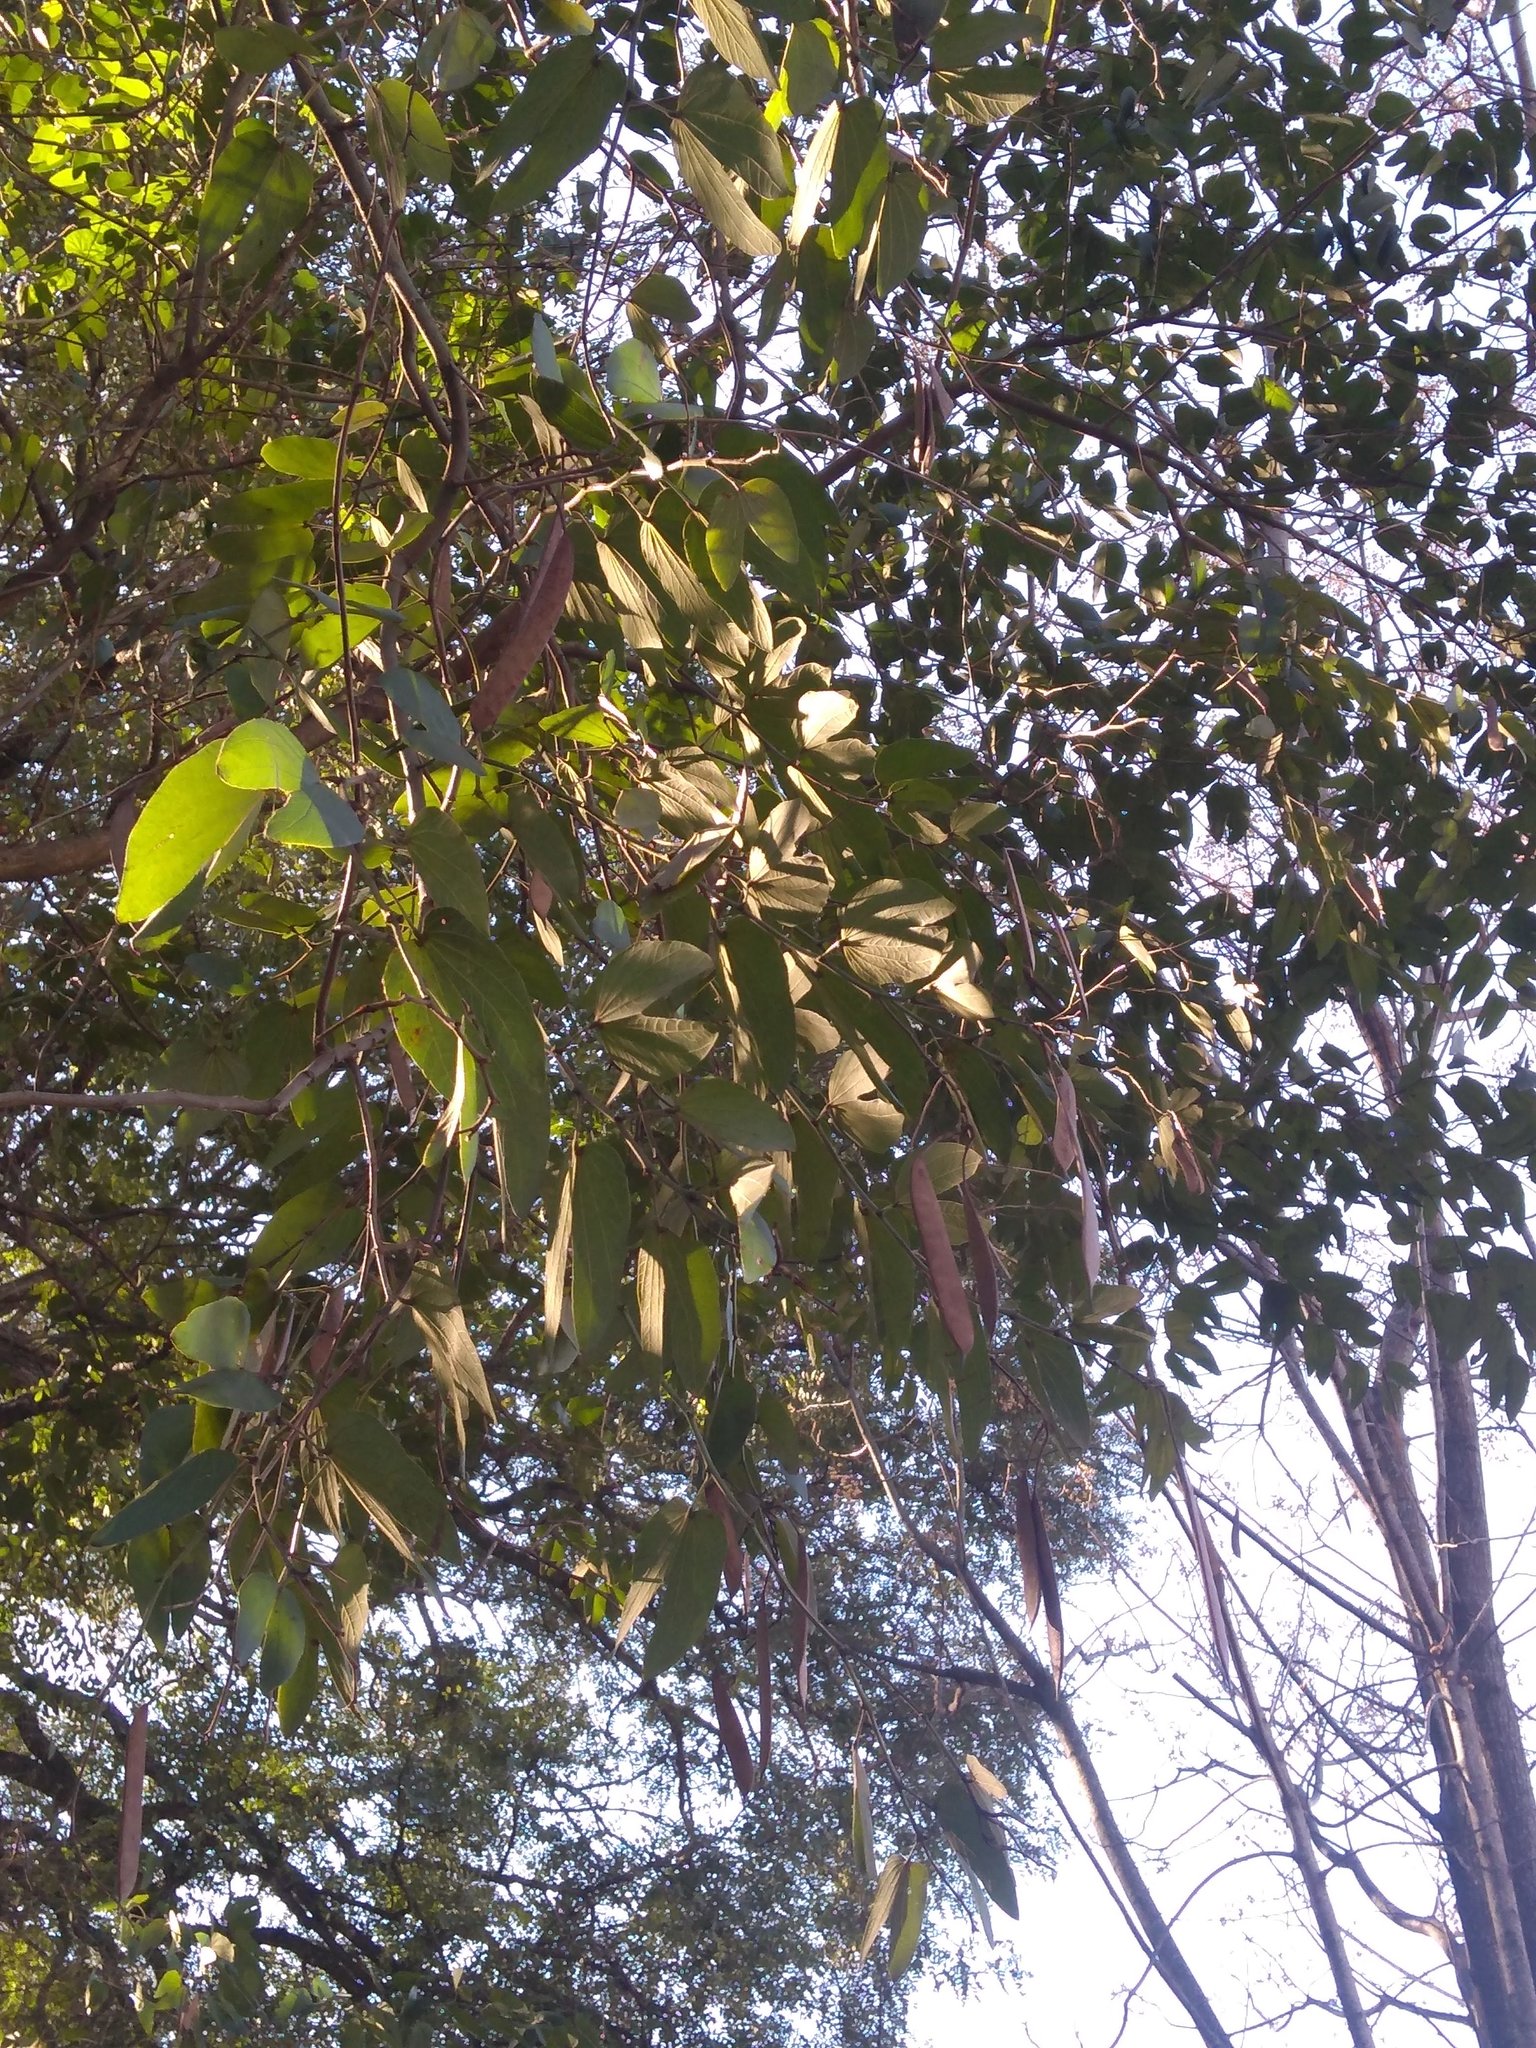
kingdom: Plantae
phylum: Tracheophyta
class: Magnoliopsida
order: Fabales
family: Fabaceae
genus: Bauhinia
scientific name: Bauhinia forficata
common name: Orchid tree
